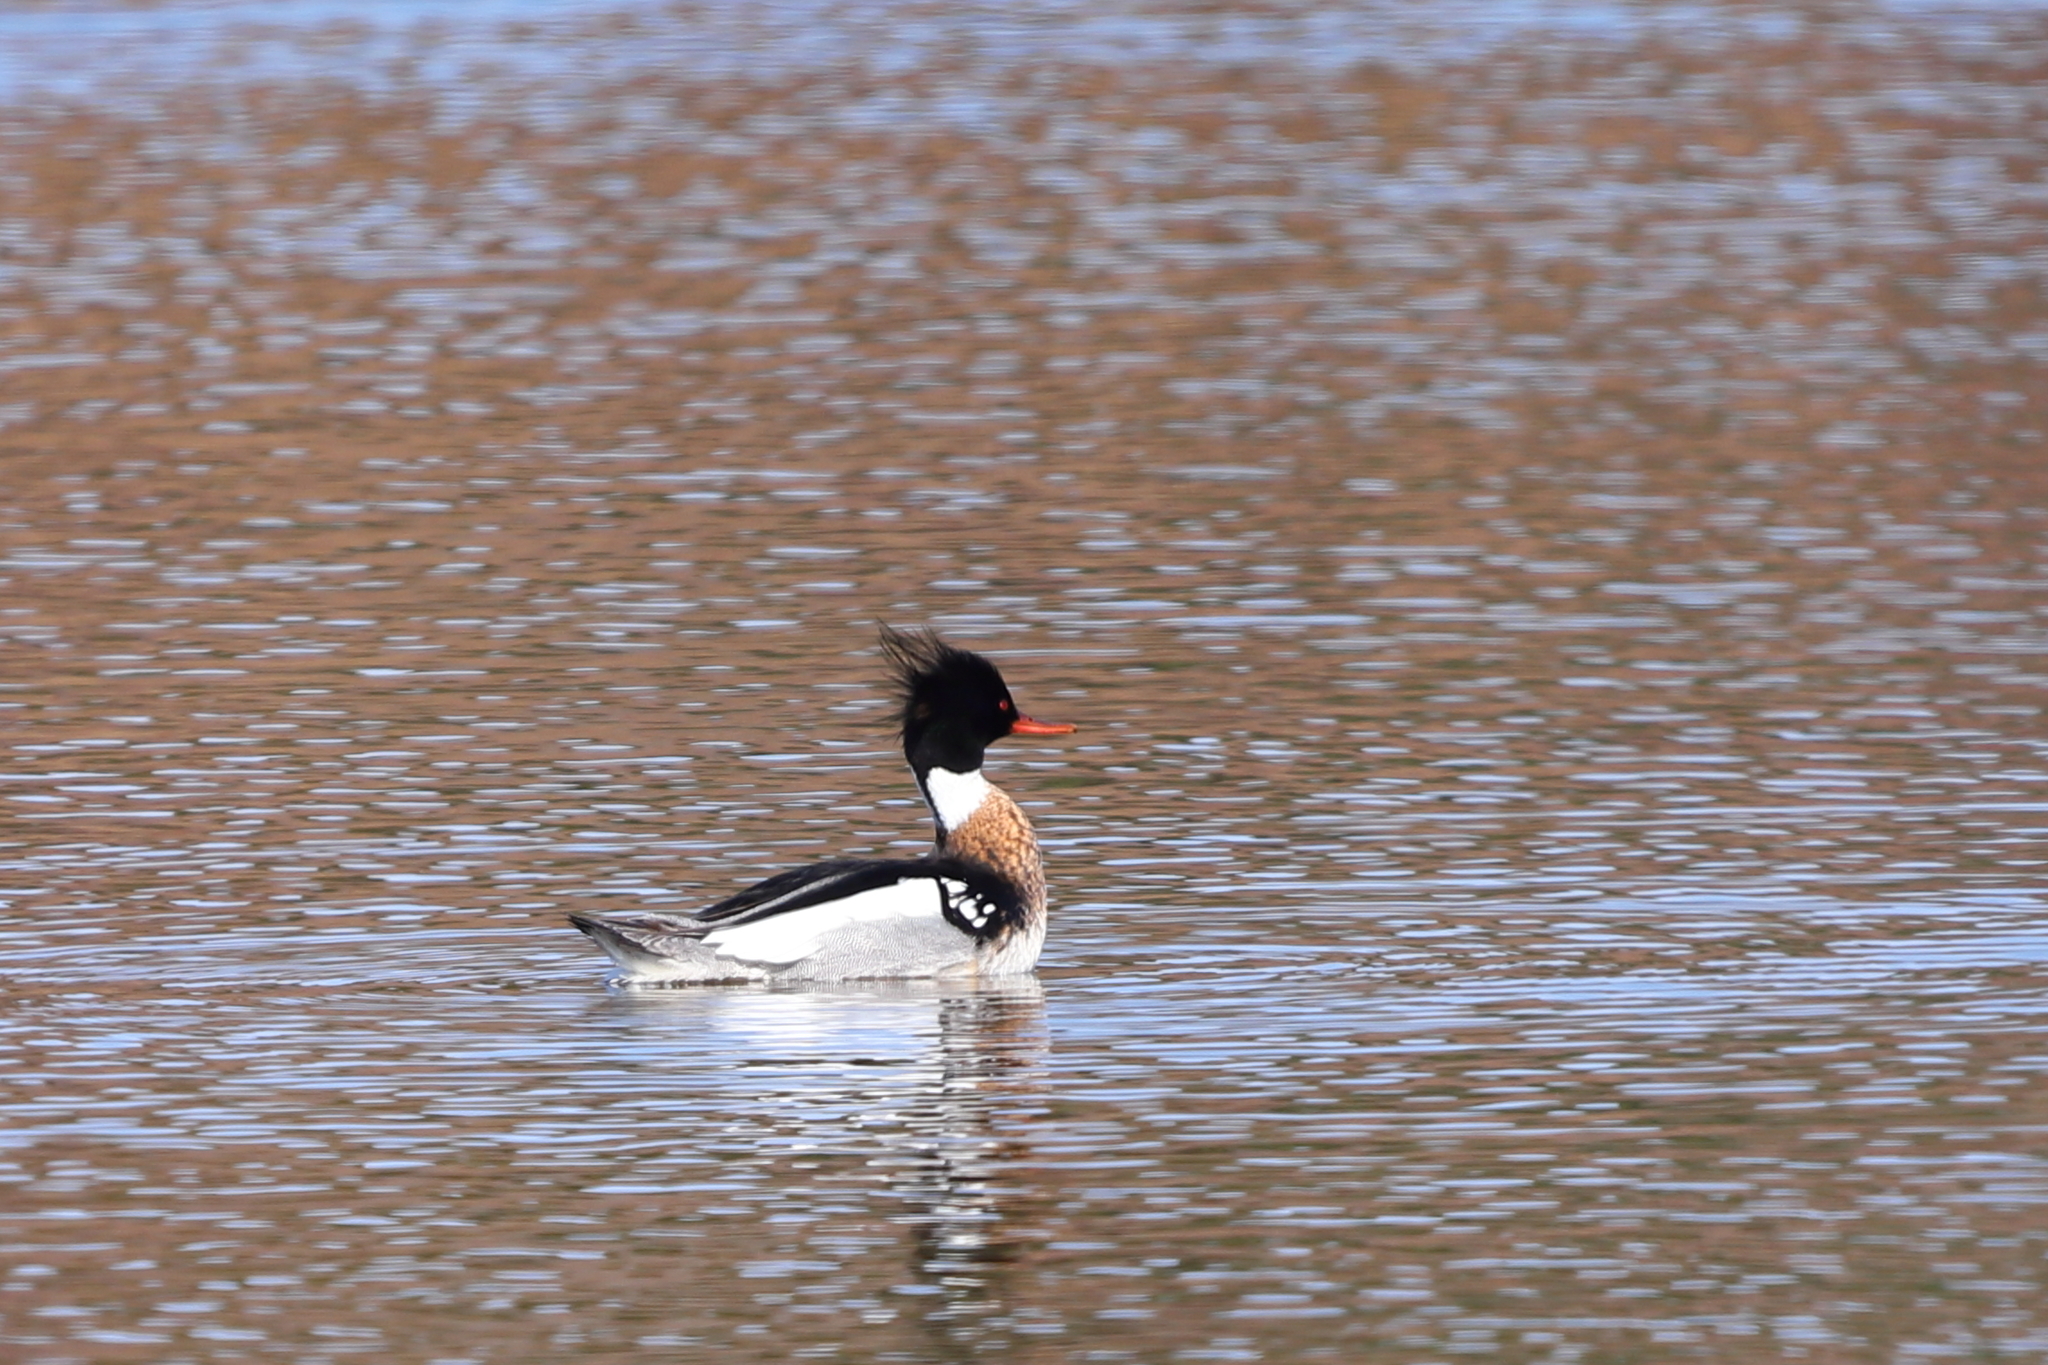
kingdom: Animalia
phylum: Chordata
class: Aves
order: Anseriformes
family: Anatidae
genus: Mergus
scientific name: Mergus serrator
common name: Red-breasted merganser
